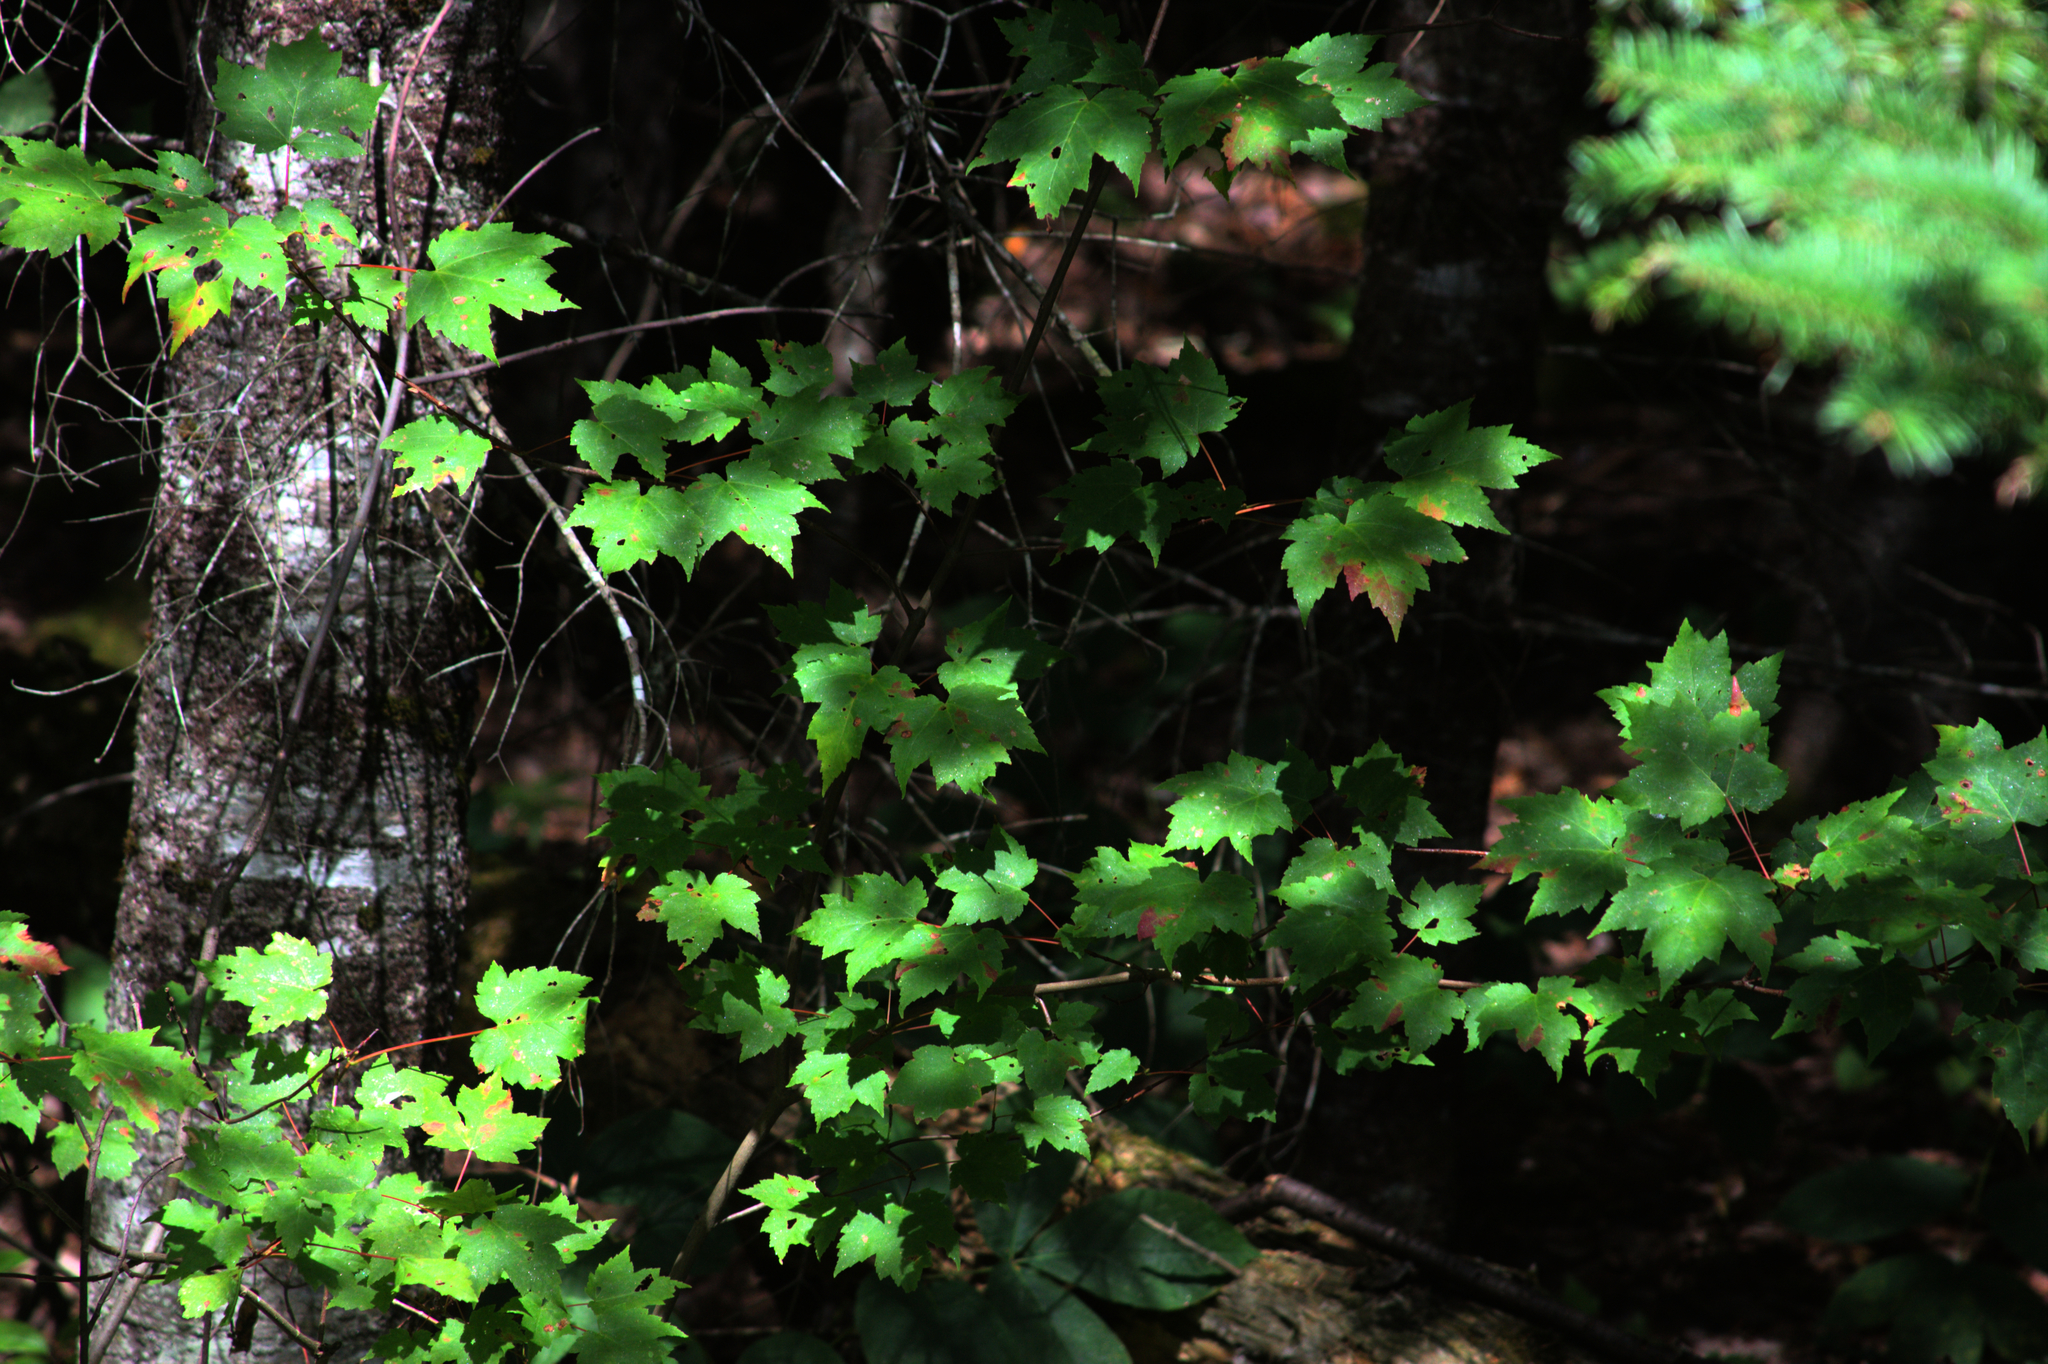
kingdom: Plantae
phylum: Tracheophyta
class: Magnoliopsida
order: Sapindales
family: Sapindaceae
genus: Acer
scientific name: Acer rubrum
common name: Red maple
